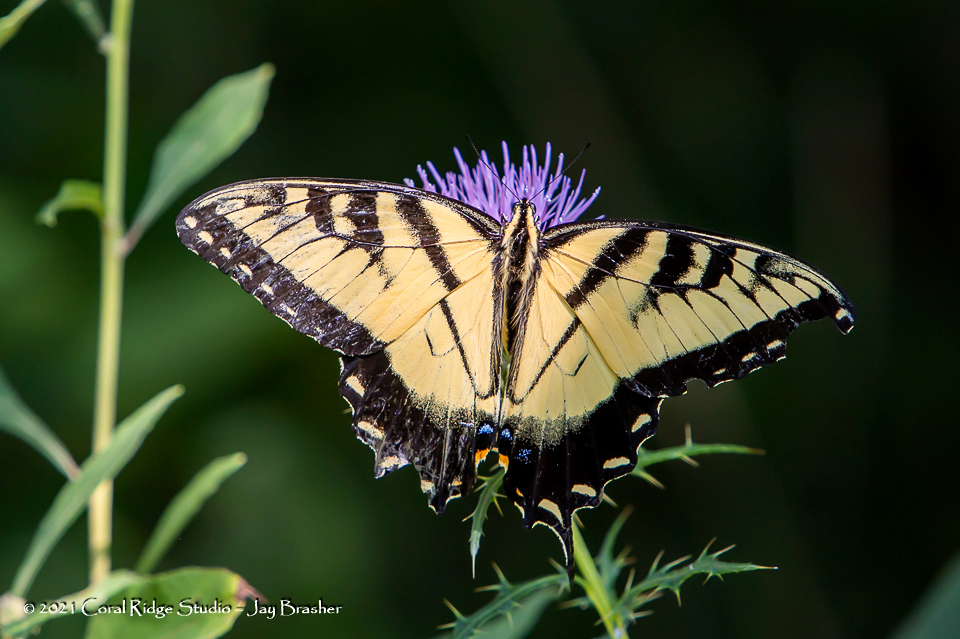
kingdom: Animalia
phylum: Arthropoda
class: Insecta
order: Lepidoptera
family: Papilionidae
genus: Papilio
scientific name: Papilio glaucus
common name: Tiger swallowtail
